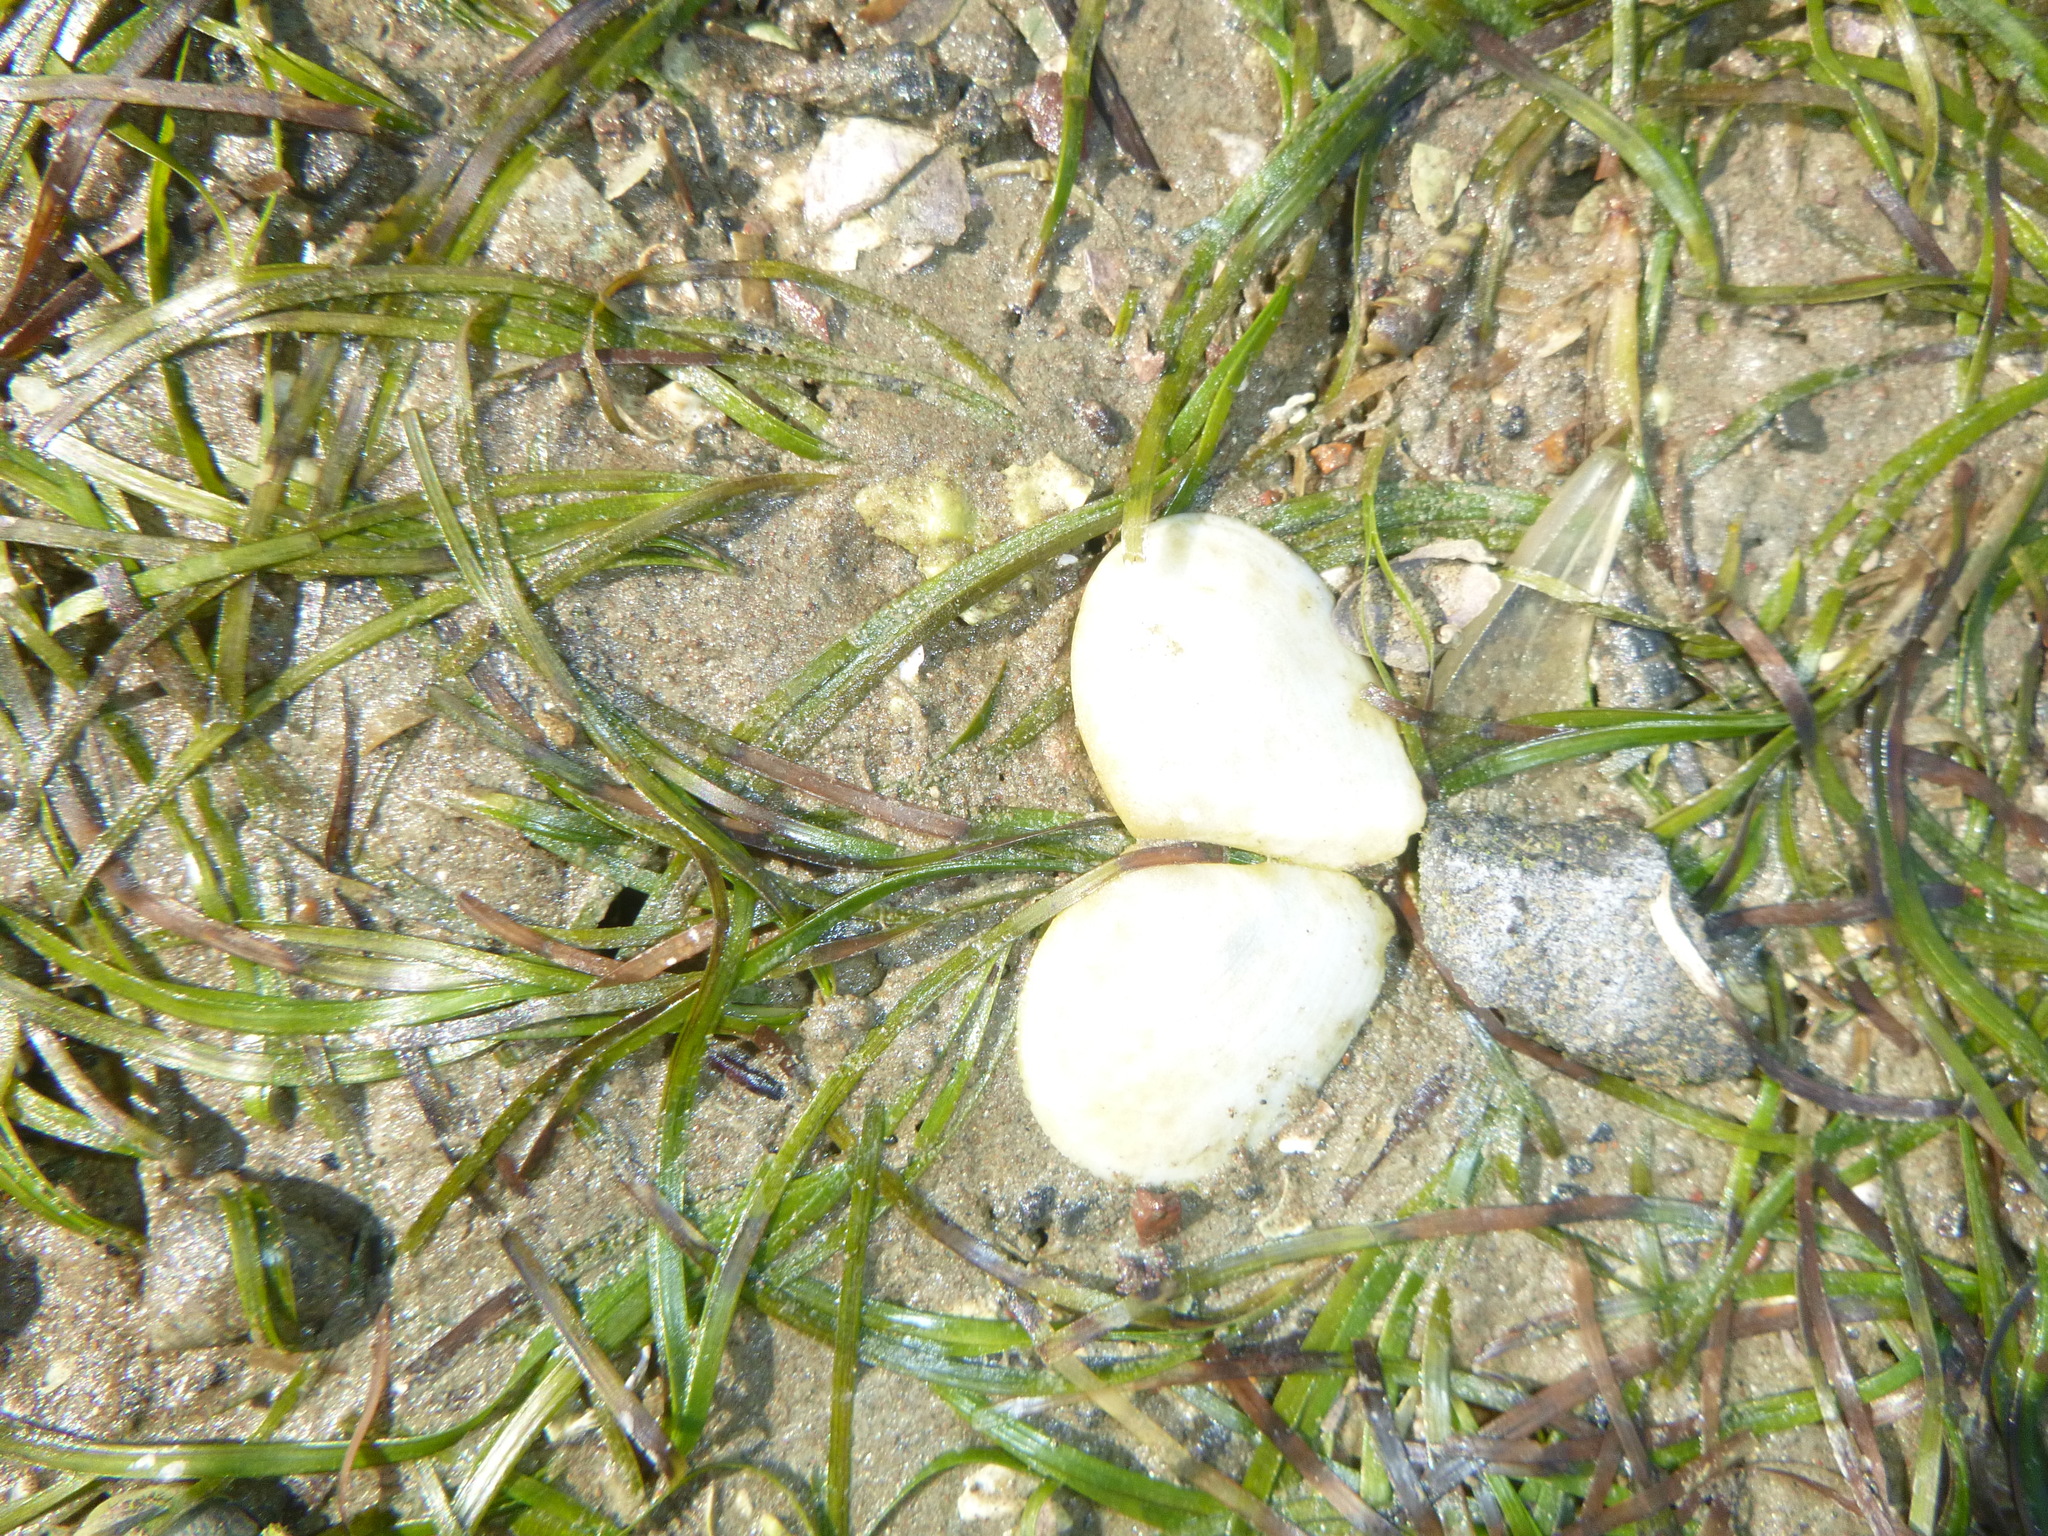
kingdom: Animalia
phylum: Mollusca
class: Bivalvia
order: Cardiida
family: Tellinidae
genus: Macomona
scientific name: Macomona liliana
